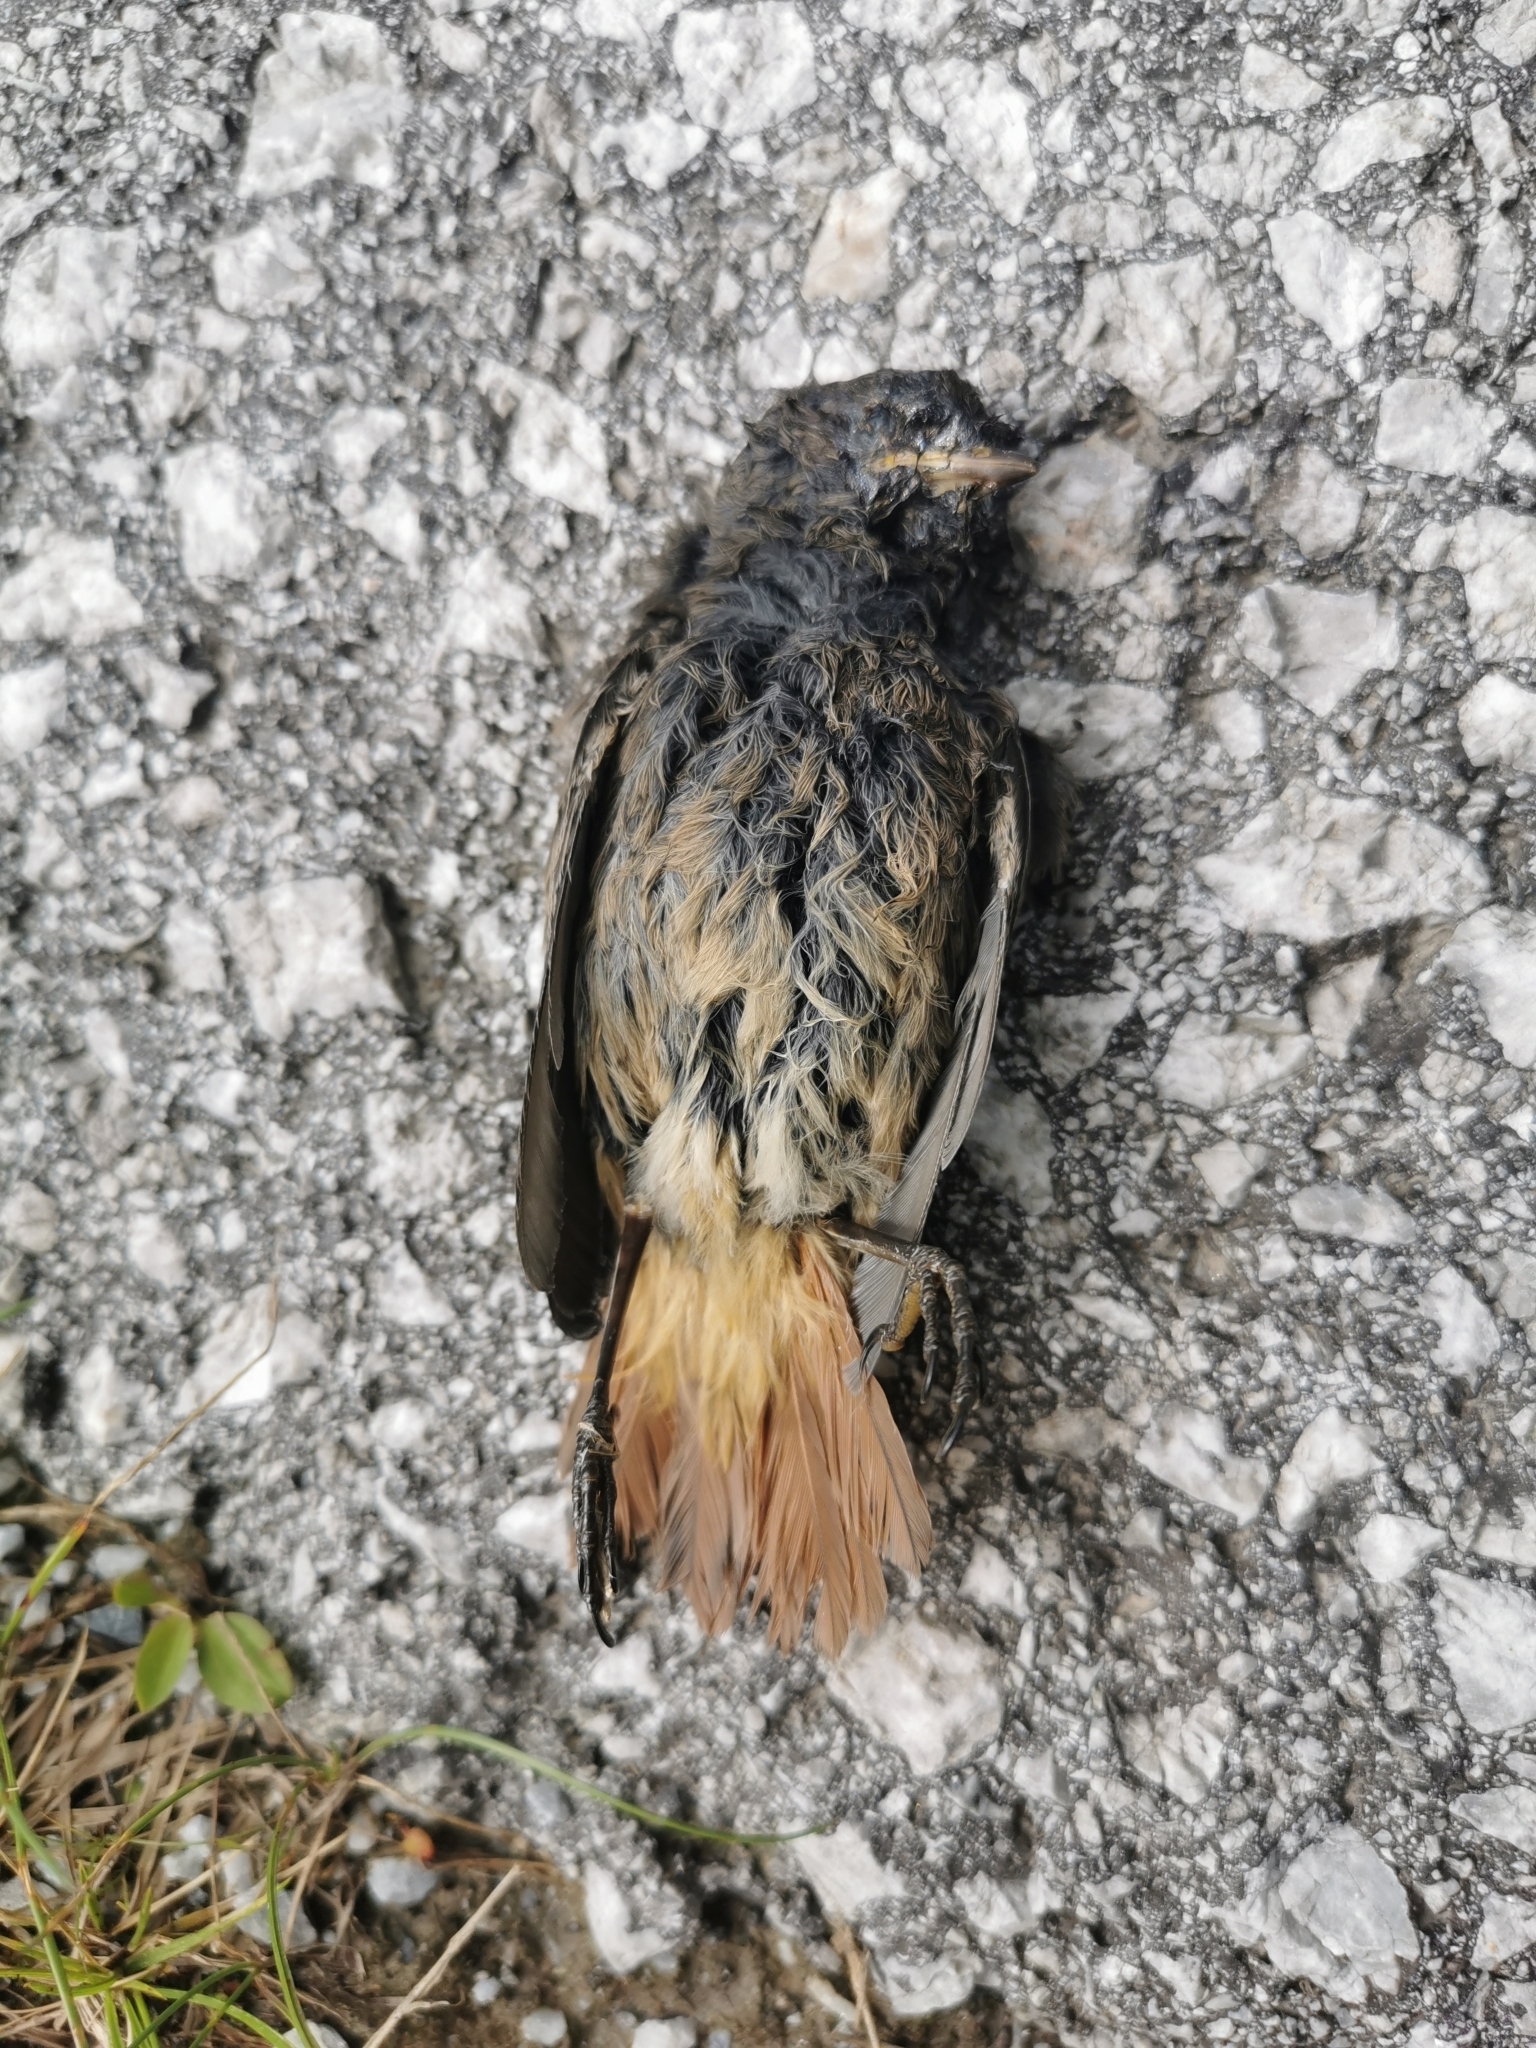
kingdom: Animalia
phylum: Chordata
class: Aves
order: Passeriformes
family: Muscicapidae
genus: Phoenicurus
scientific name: Phoenicurus ochruros
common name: Black redstart
